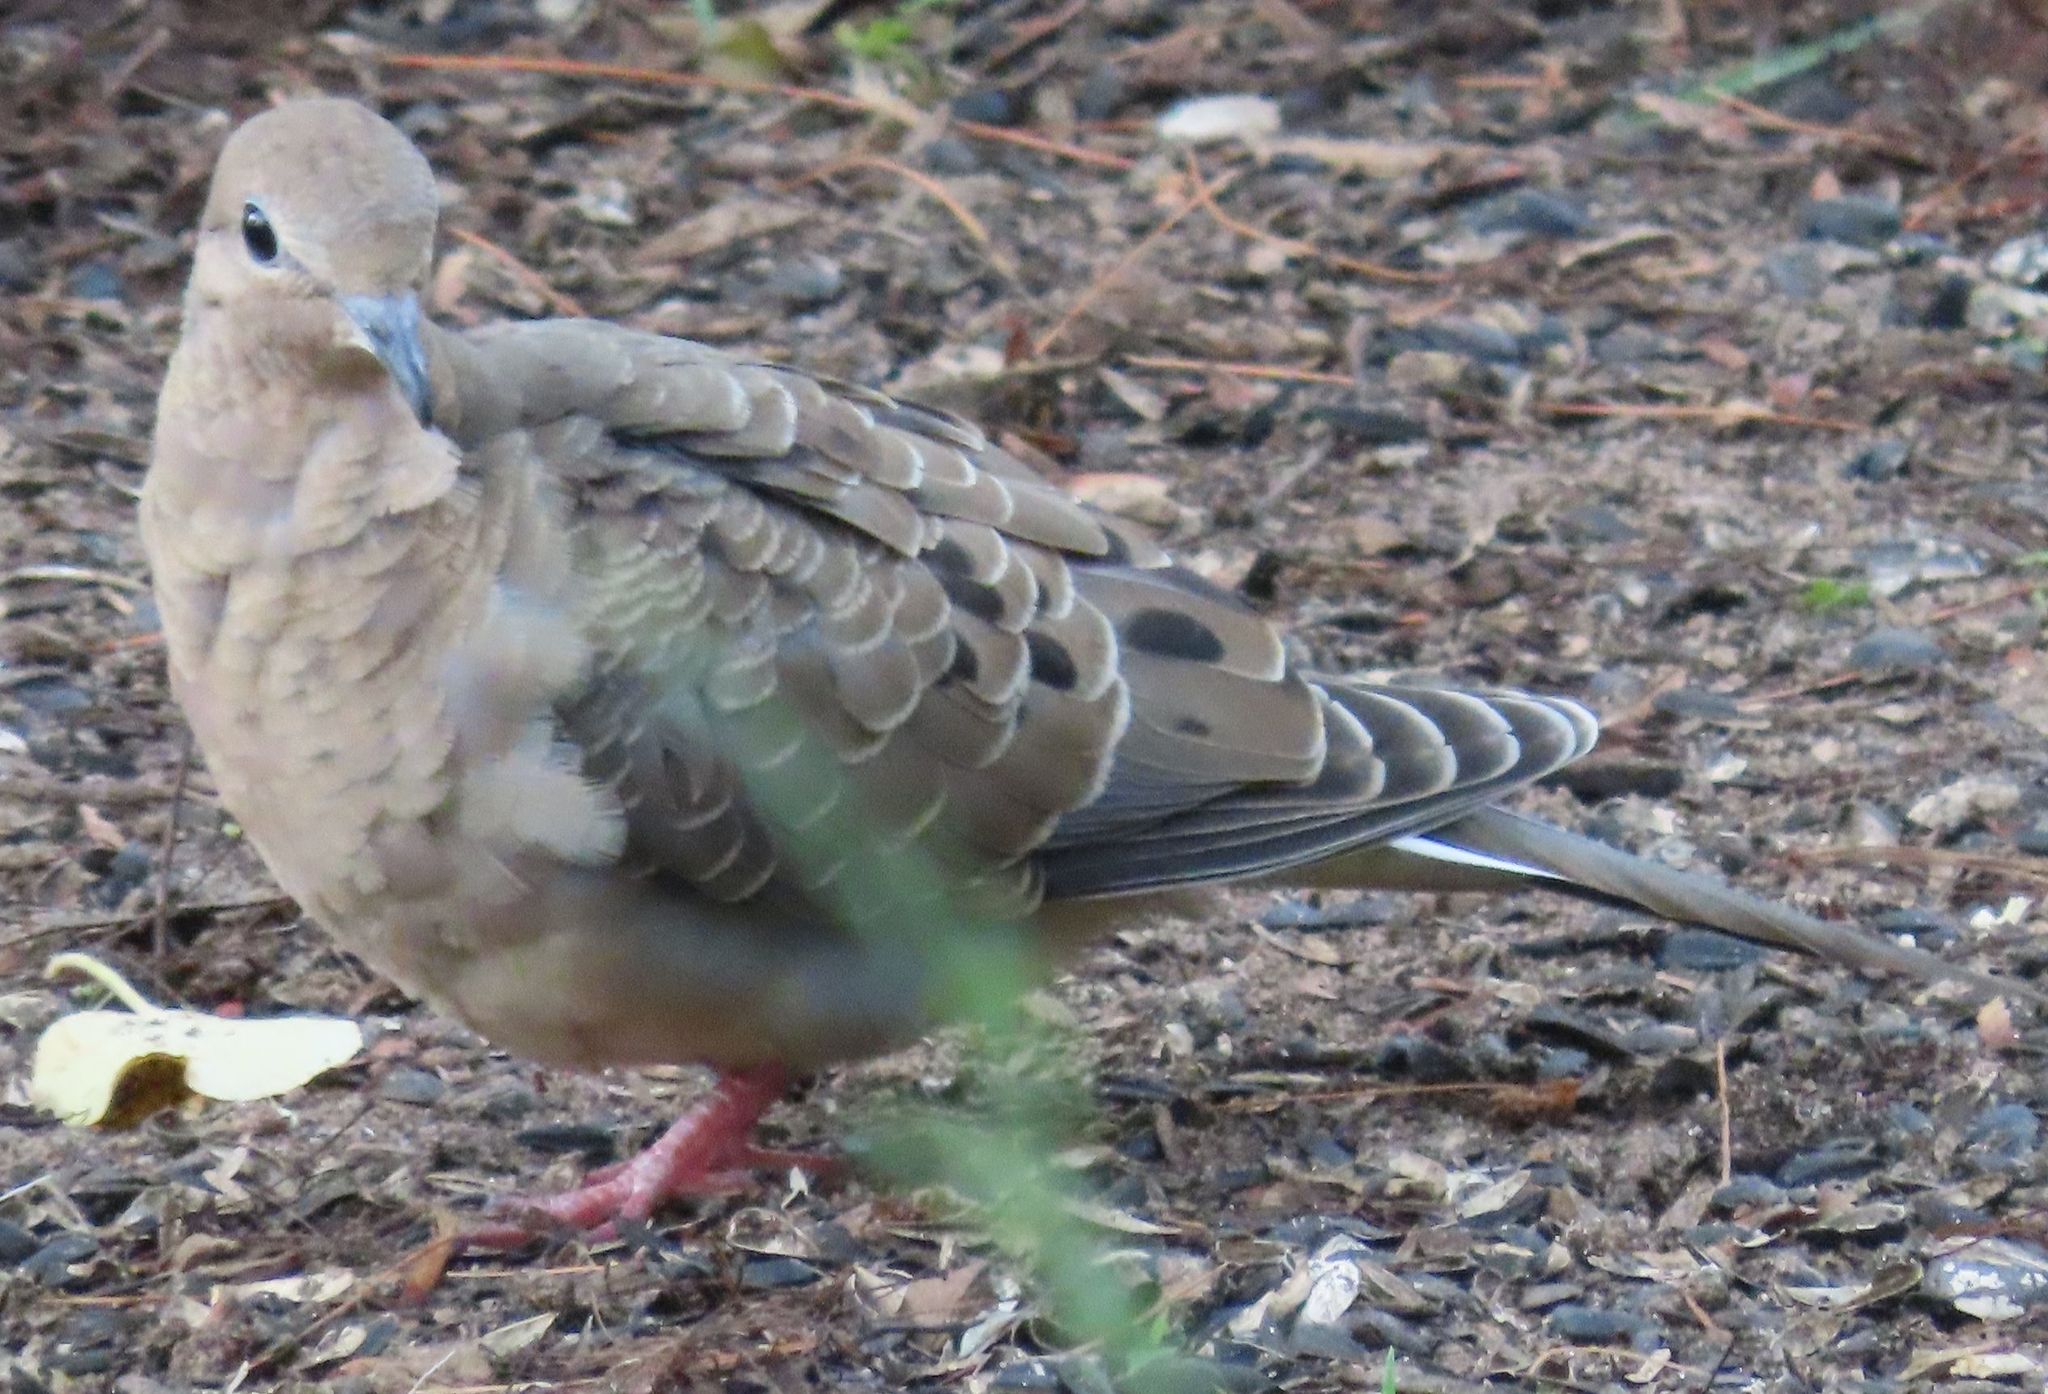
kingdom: Animalia
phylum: Chordata
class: Aves
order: Columbiformes
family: Columbidae
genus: Zenaida
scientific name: Zenaida macroura
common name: Mourning dove
